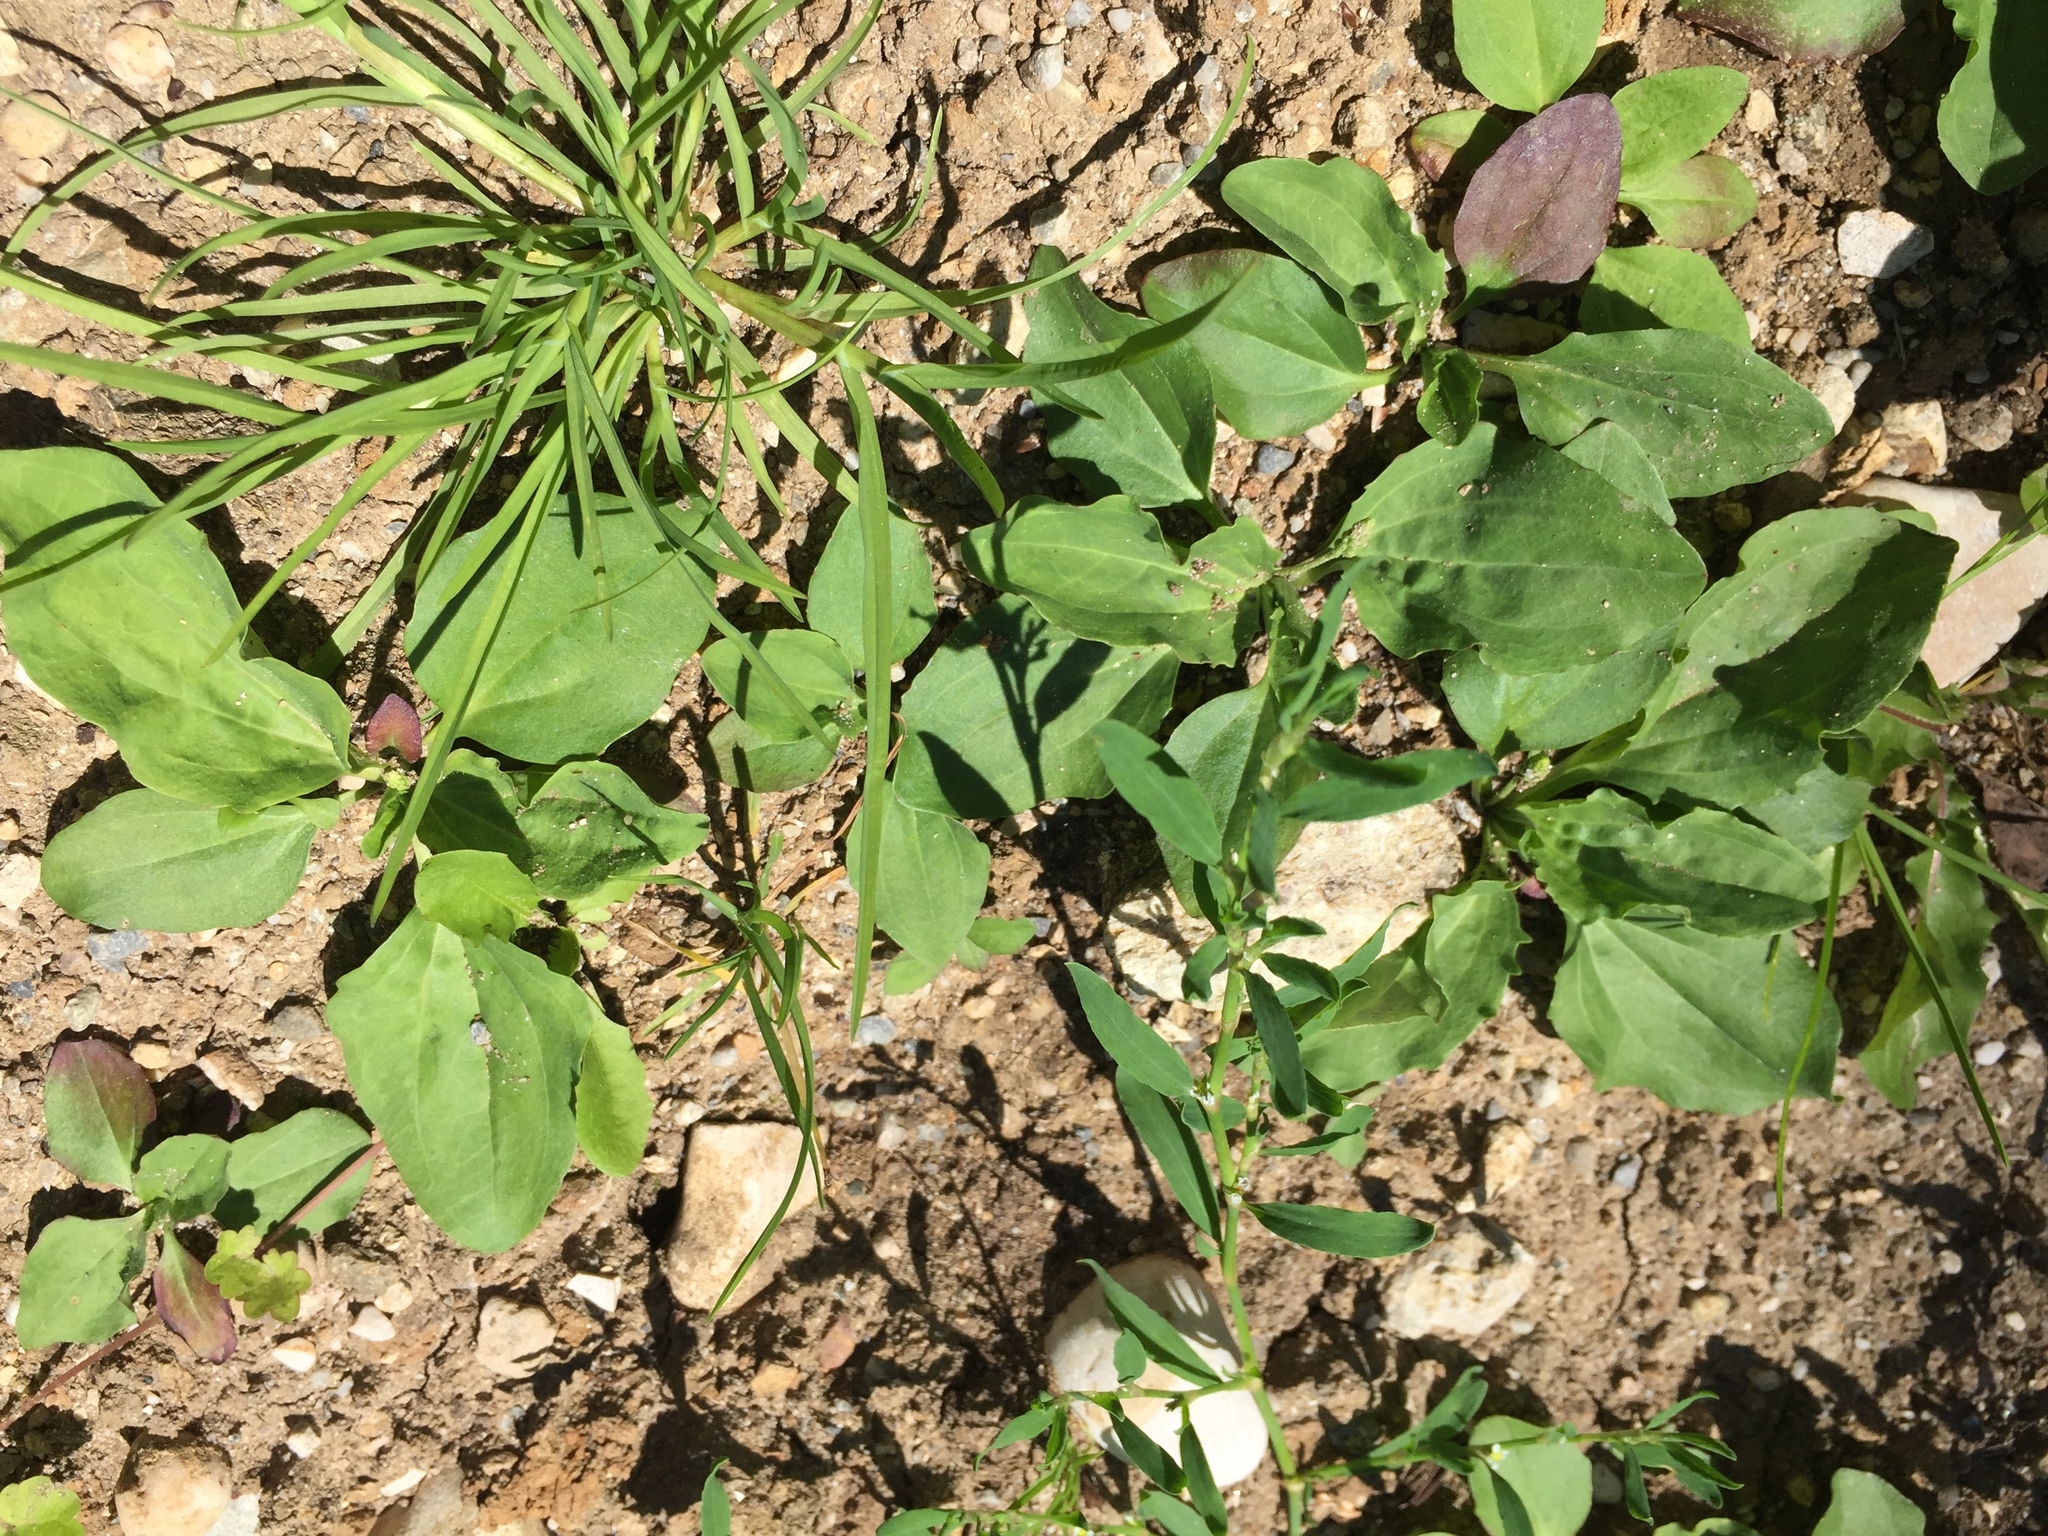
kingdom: Plantae
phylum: Tracheophyta
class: Magnoliopsida
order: Lamiales
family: Plantaginaceae
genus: Plantago
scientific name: Plantago major
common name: Common plantain
